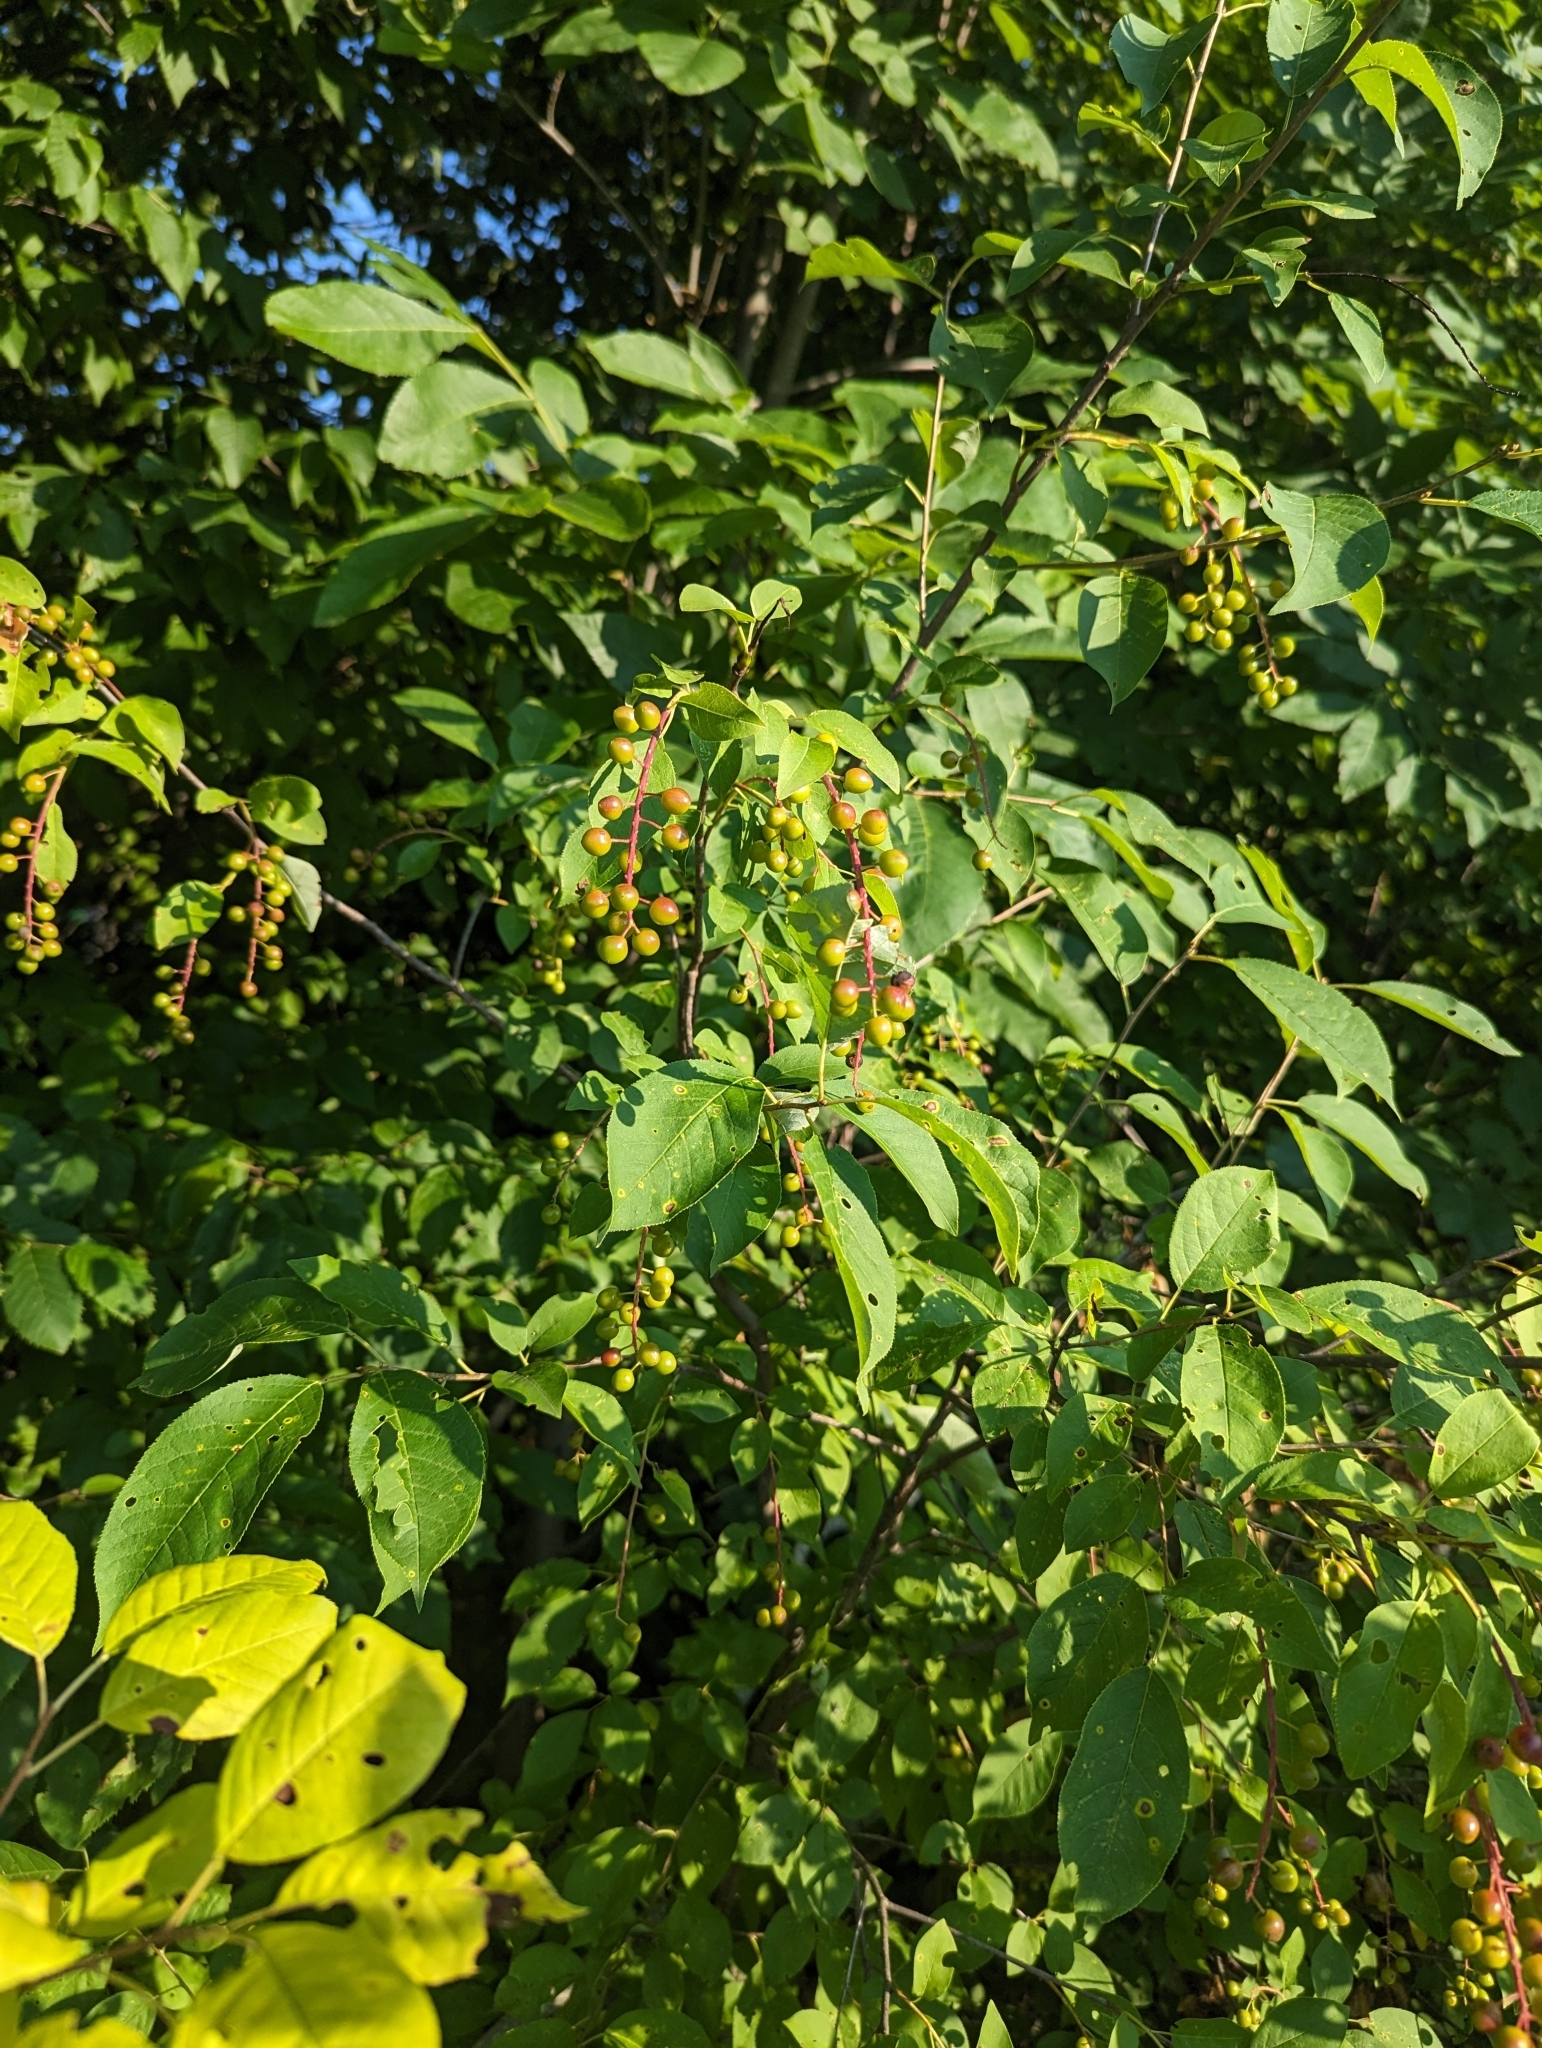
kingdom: Plantae
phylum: Tracheophyta
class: Magnoliopsida
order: Rosales
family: Rosaceae
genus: Prunus
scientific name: Prunus virginiana
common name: Chokecherry
